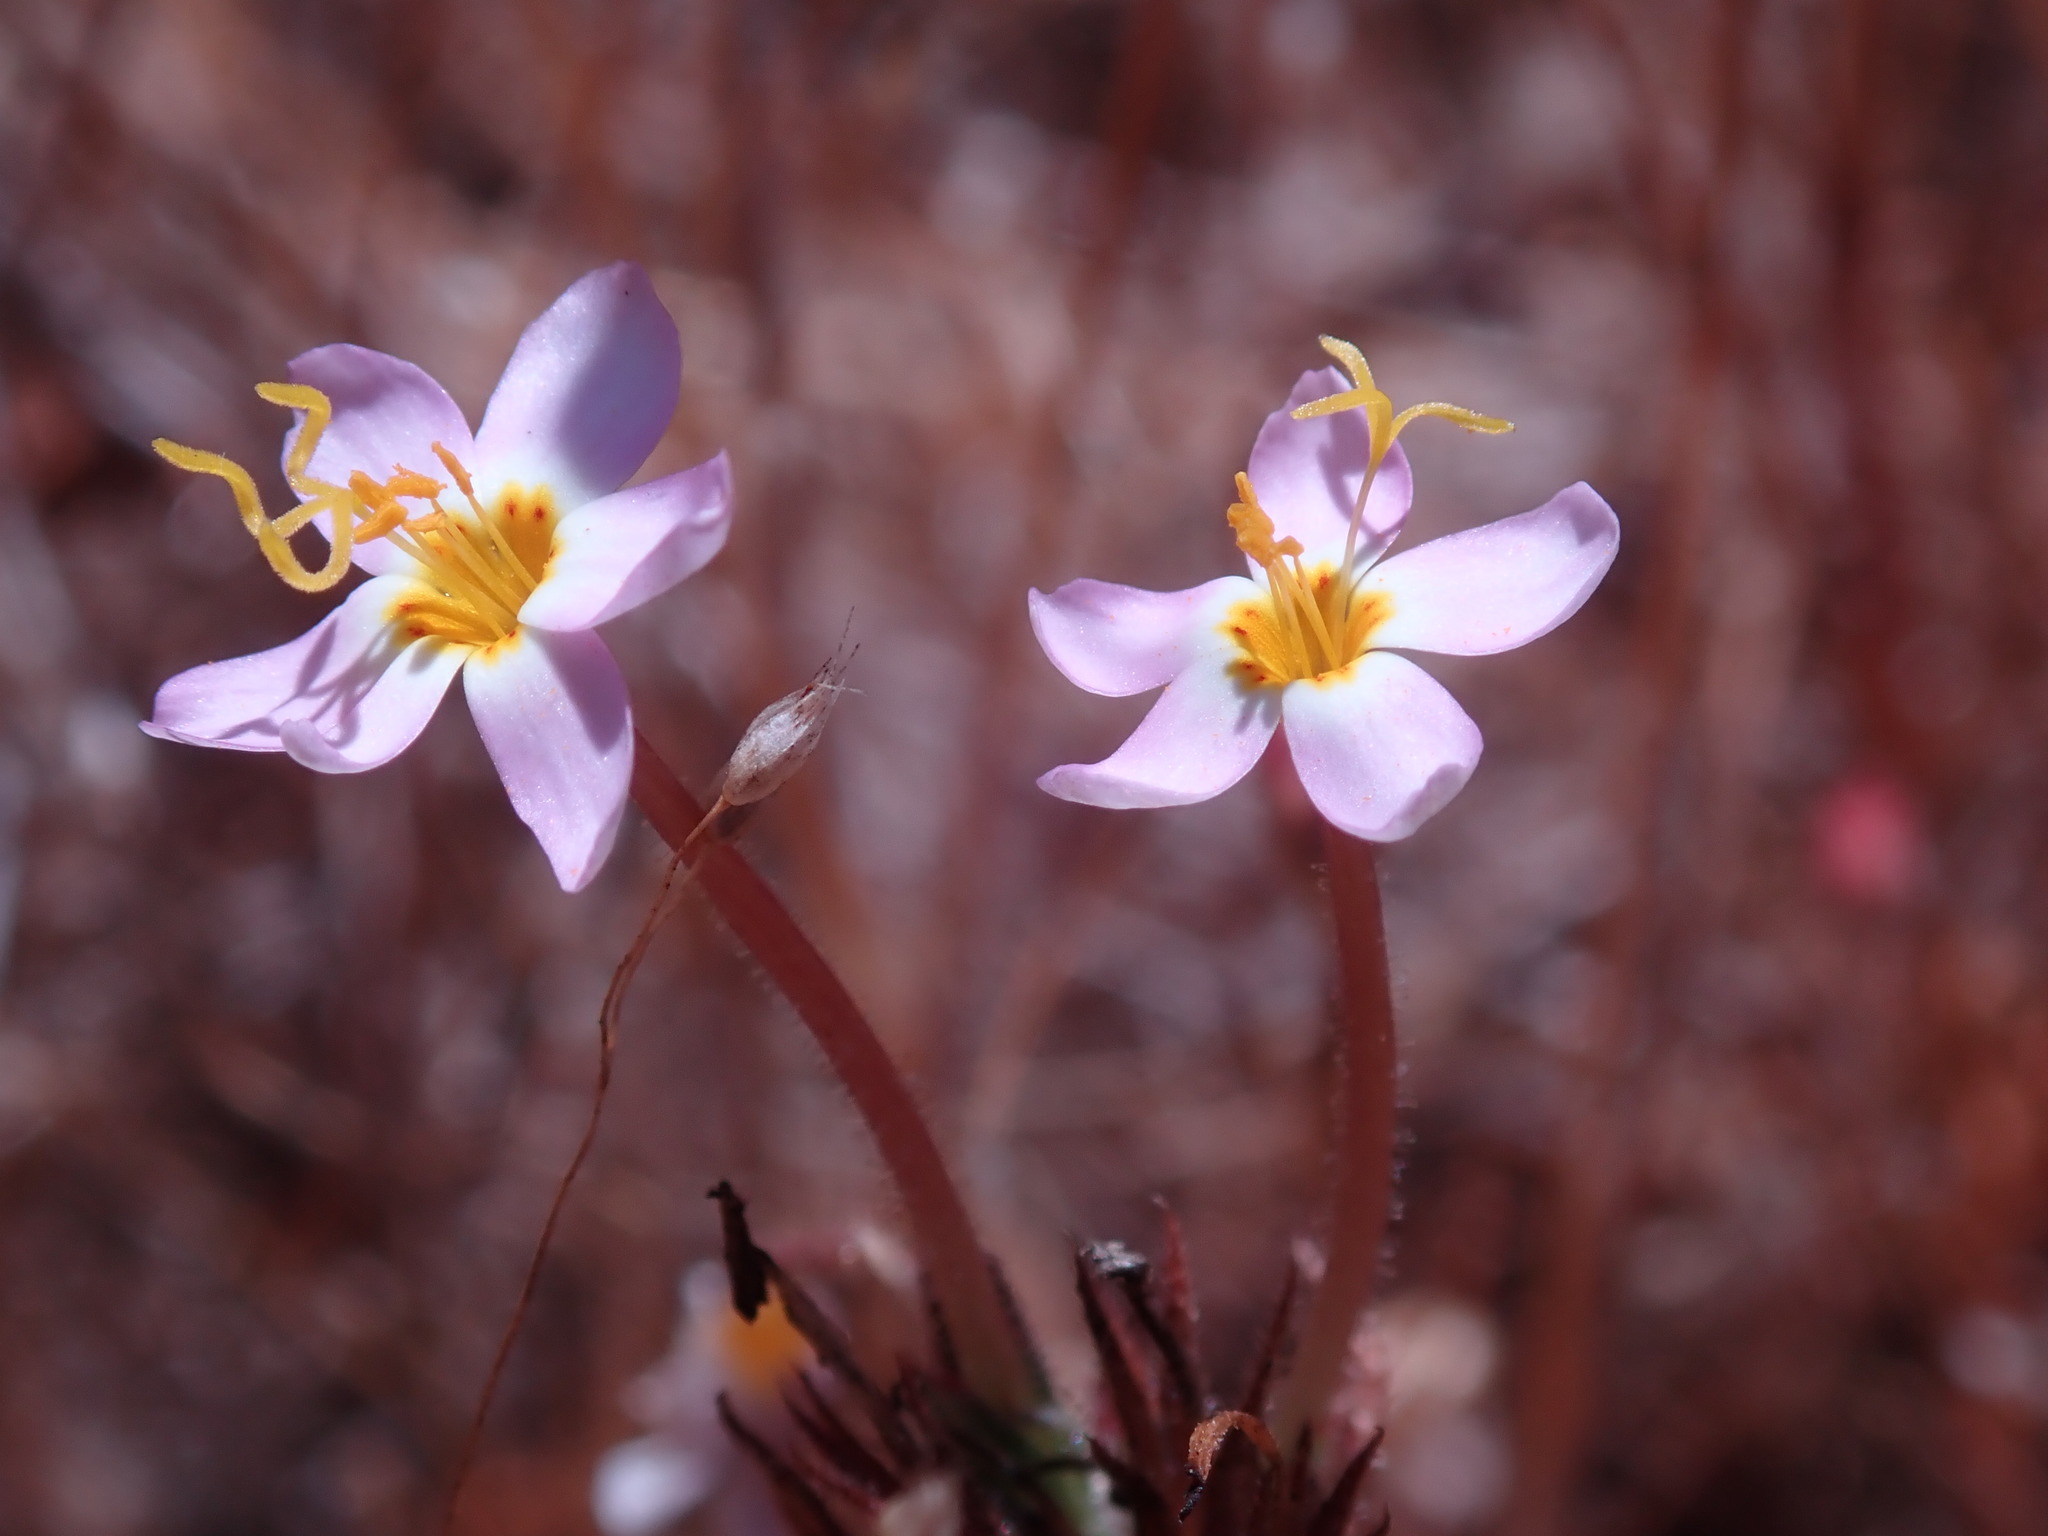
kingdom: Plantae
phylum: Tracheophyta
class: Magnoliopsida
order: Ericales
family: Polemoniaceae
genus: Leptosiphon
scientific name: Leptosiphon parviflorus
